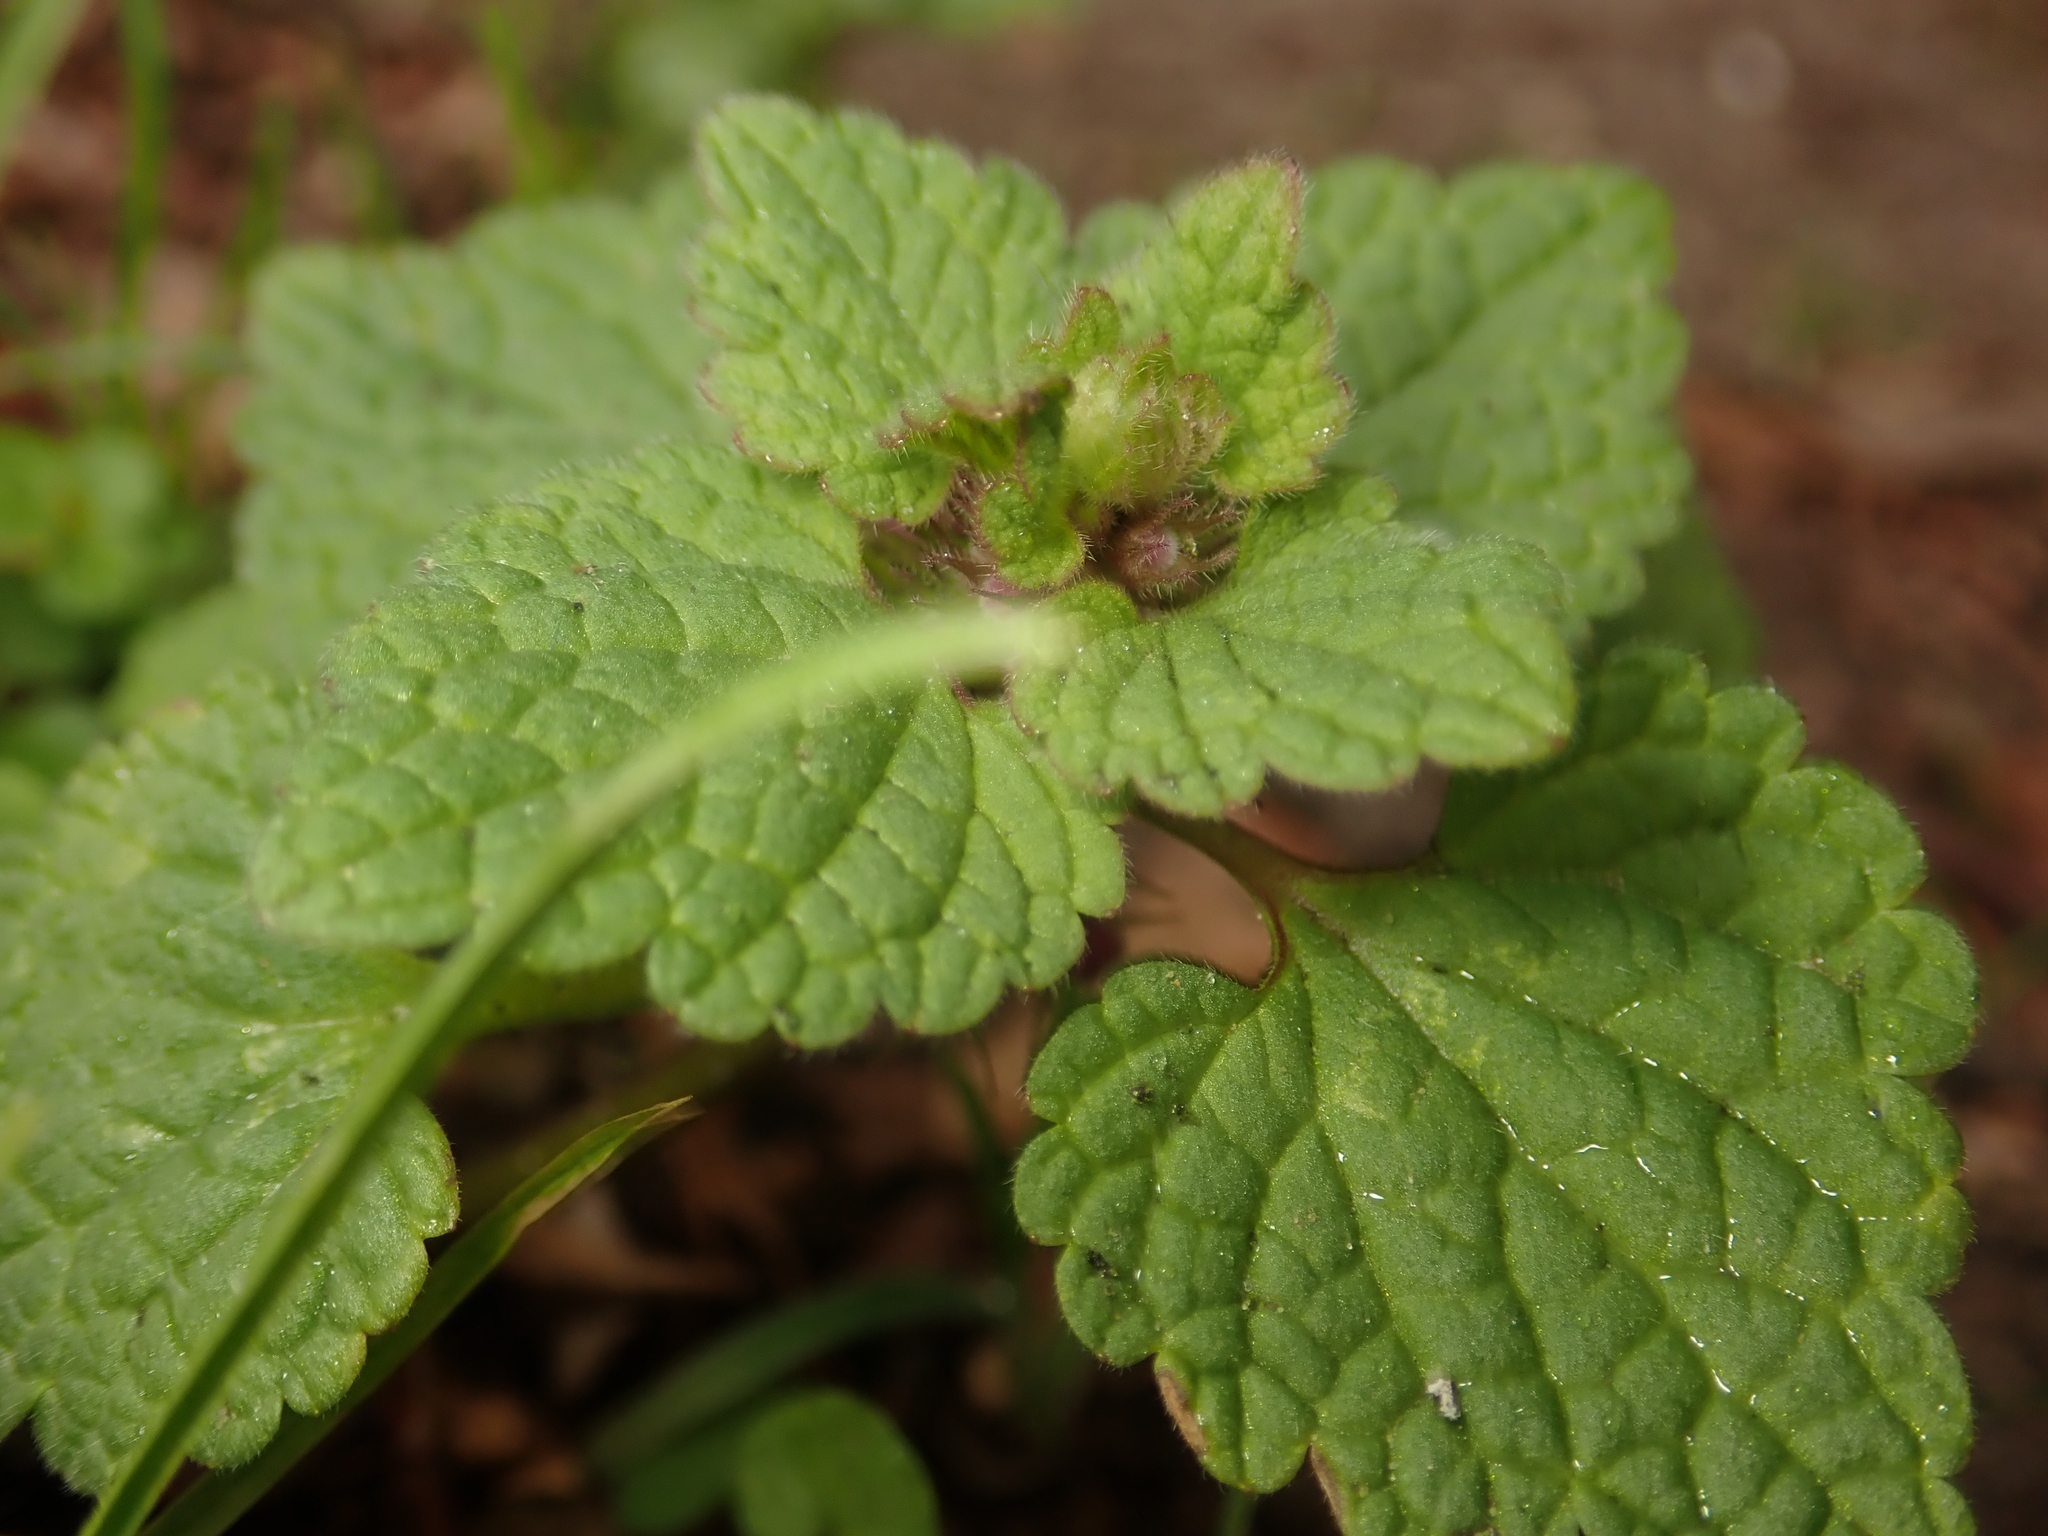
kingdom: Plantae
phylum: Tracheophyta
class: Magnoliopsida
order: Lamiales
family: Lamiaceae
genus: Lamium
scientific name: Lamium purpureum
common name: Red dead-nettle
